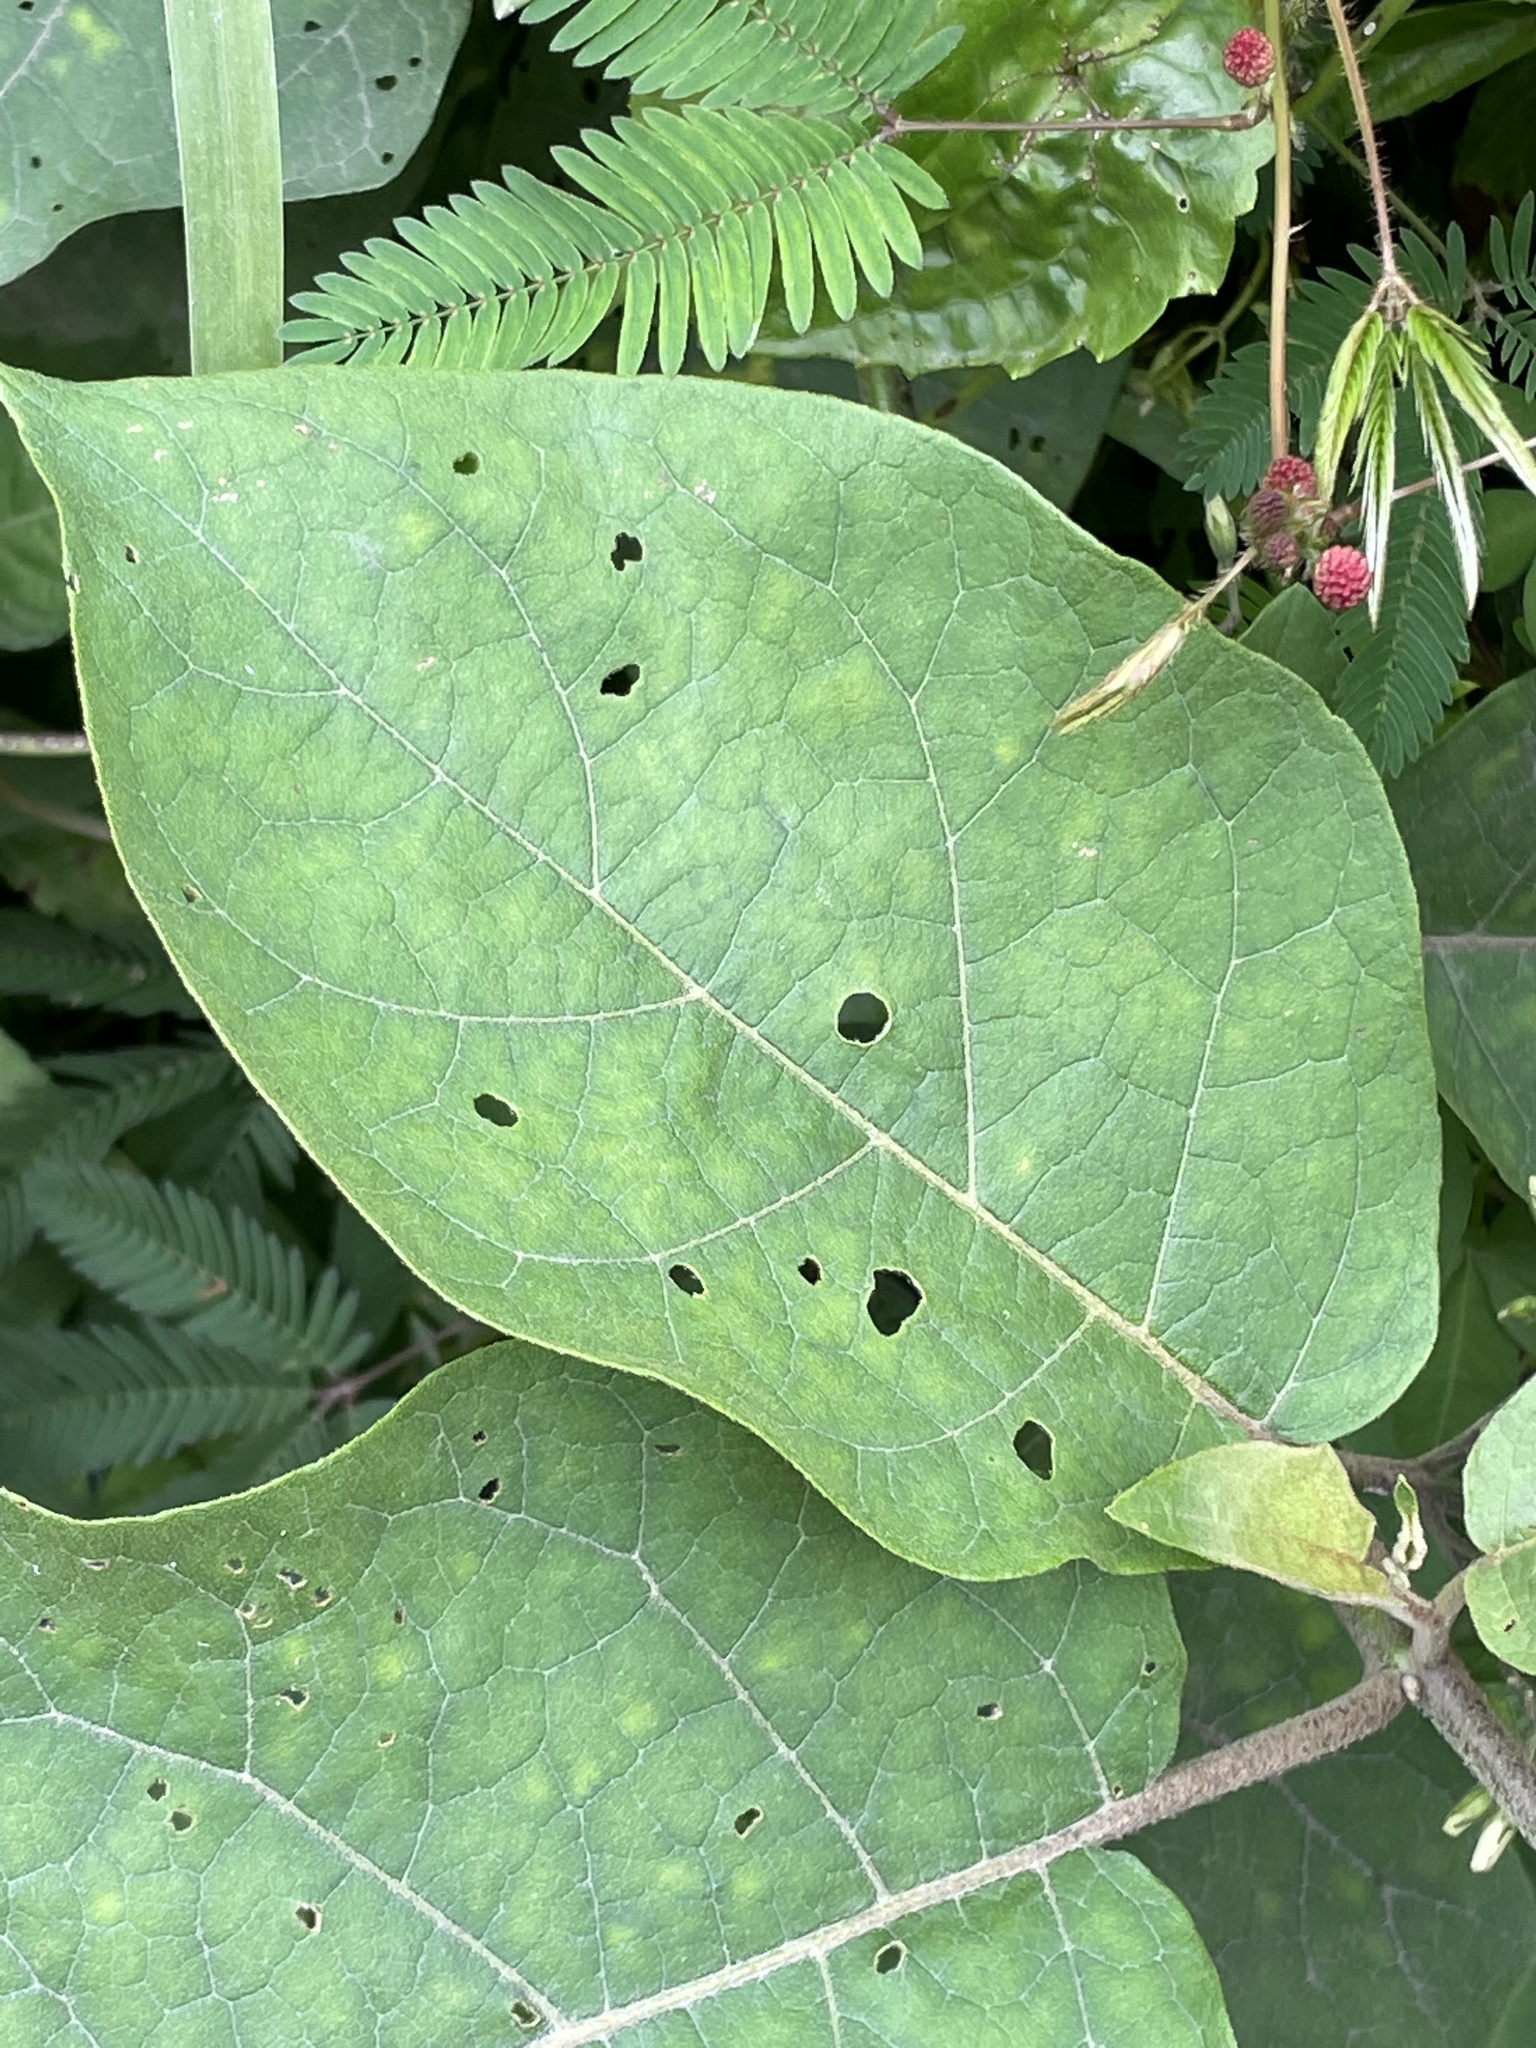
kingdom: Plantae
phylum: Tracheophyta
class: Magnoliopsida
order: Solanales
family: Solanaceae
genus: Solanum
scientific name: Solanum torvum
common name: Turkey berry
